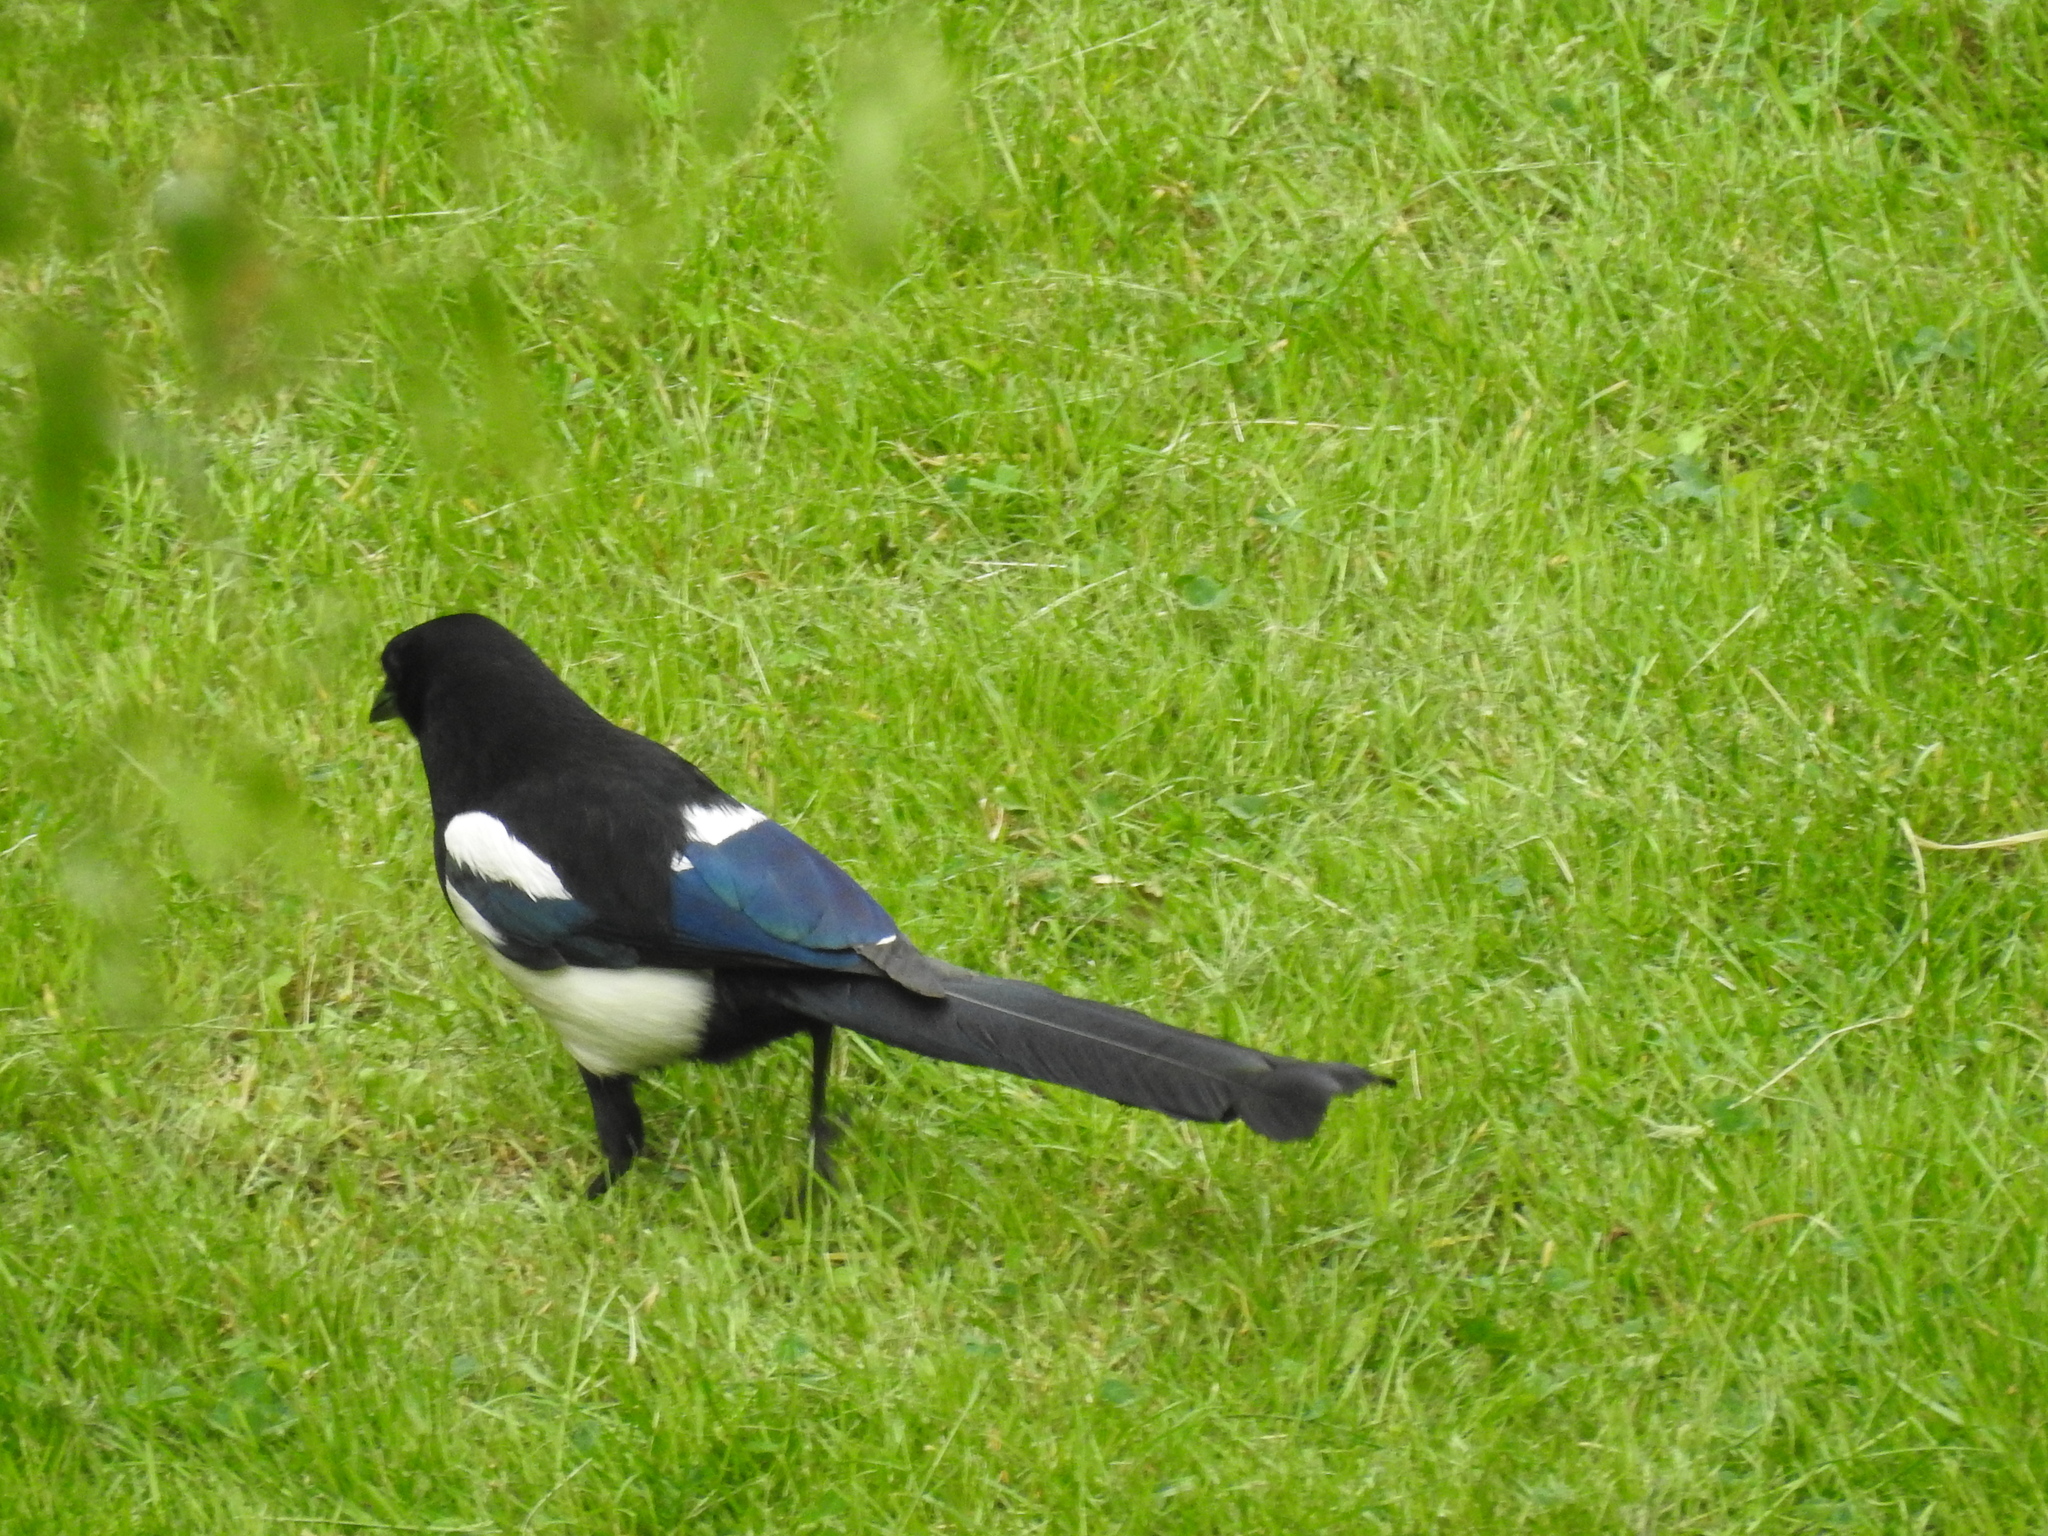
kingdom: Animalia
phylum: Chordata
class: Aves
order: Passeriformes
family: Corvidae
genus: Pica
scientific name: Pica pica
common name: Eurasian magpie
